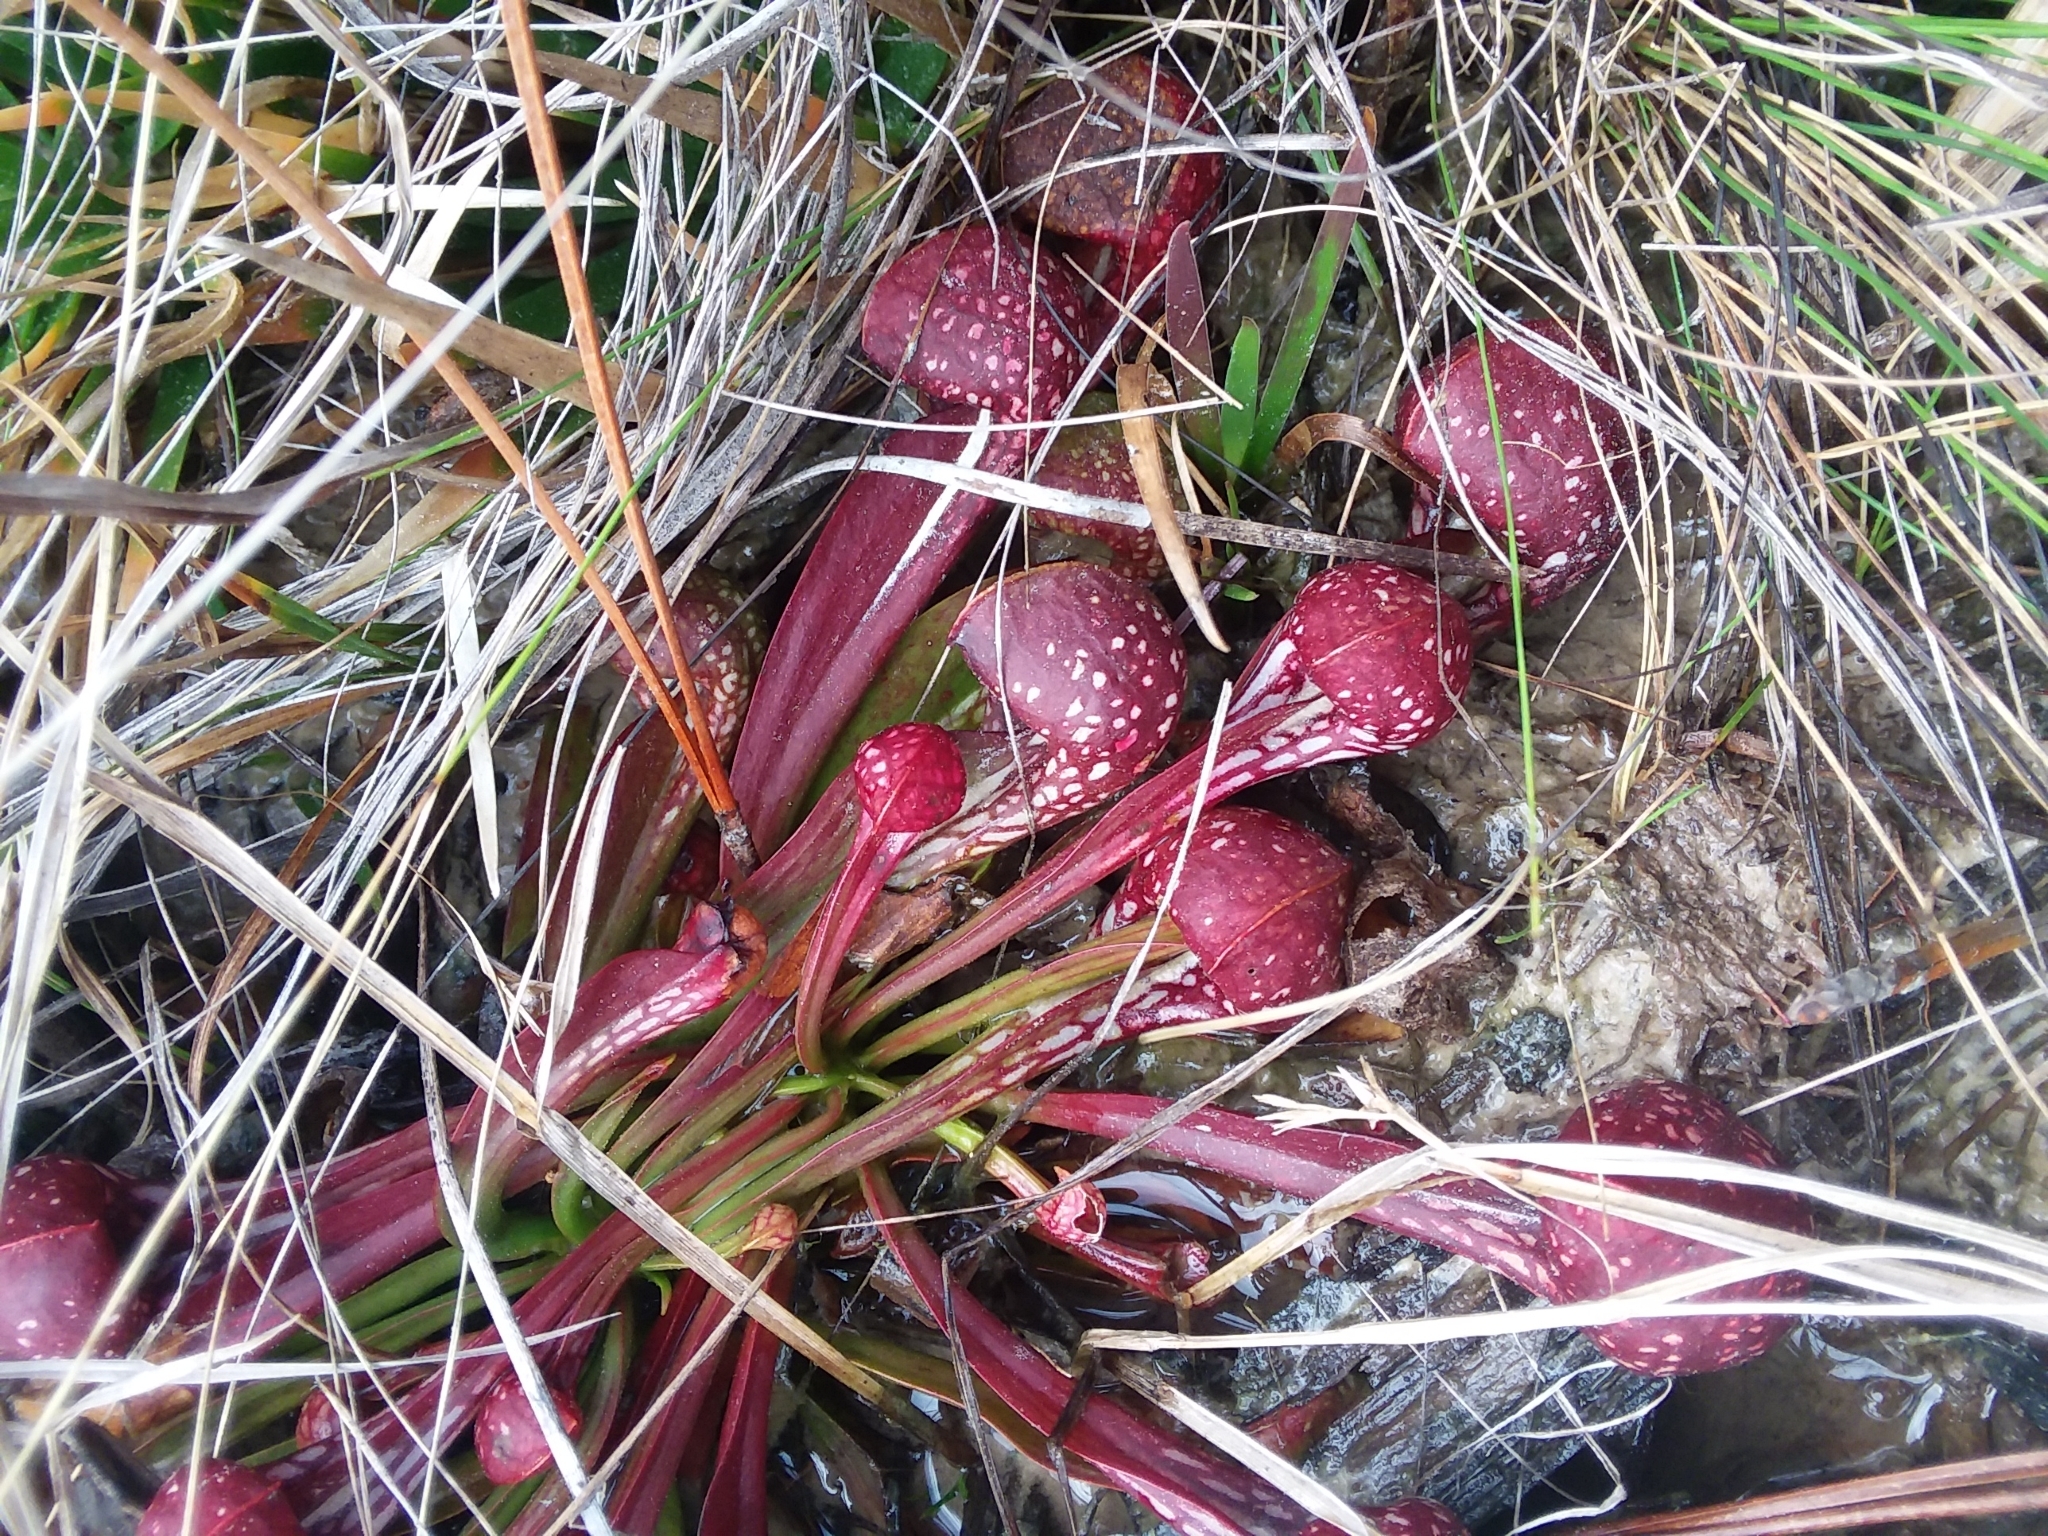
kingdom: Plantae
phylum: Tracheophyta
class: Magnoliopsida
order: Ericales
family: Sarraceniaceae
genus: Sarracenia
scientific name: Sarracenia psittacina
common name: Parrot pitcherplant
